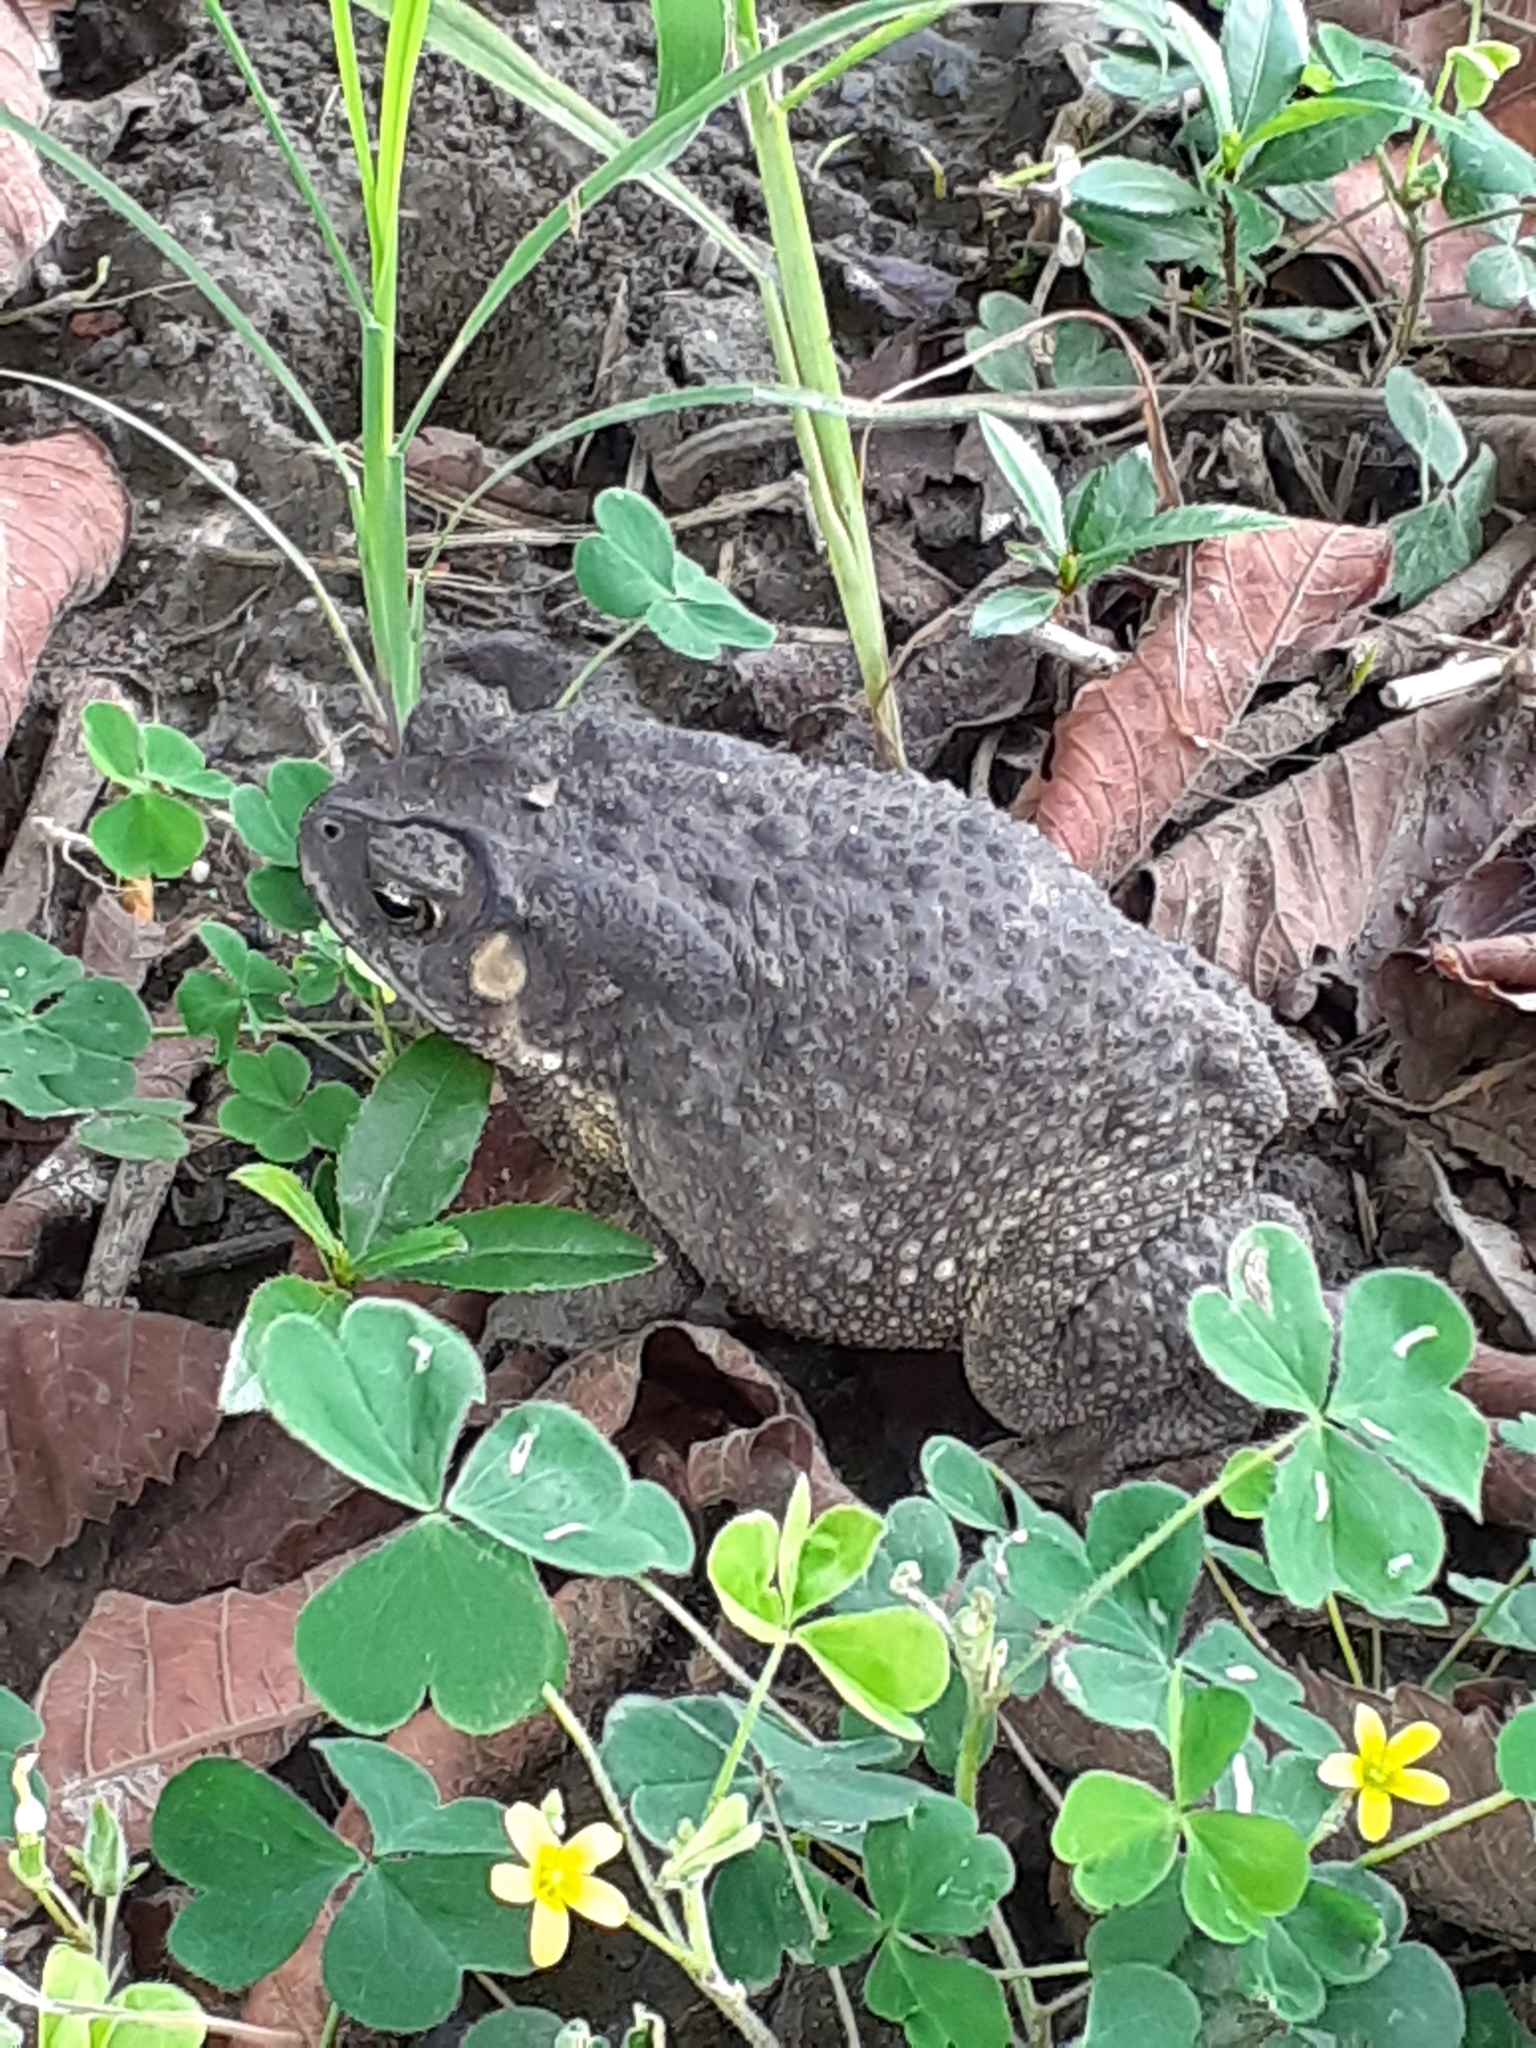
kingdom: Animalia
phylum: Chordata
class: Amphibia
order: Anura
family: Bufonidae
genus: Duttaphrynus
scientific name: Duttaphrynus melanostictus
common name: Common sunda toad
